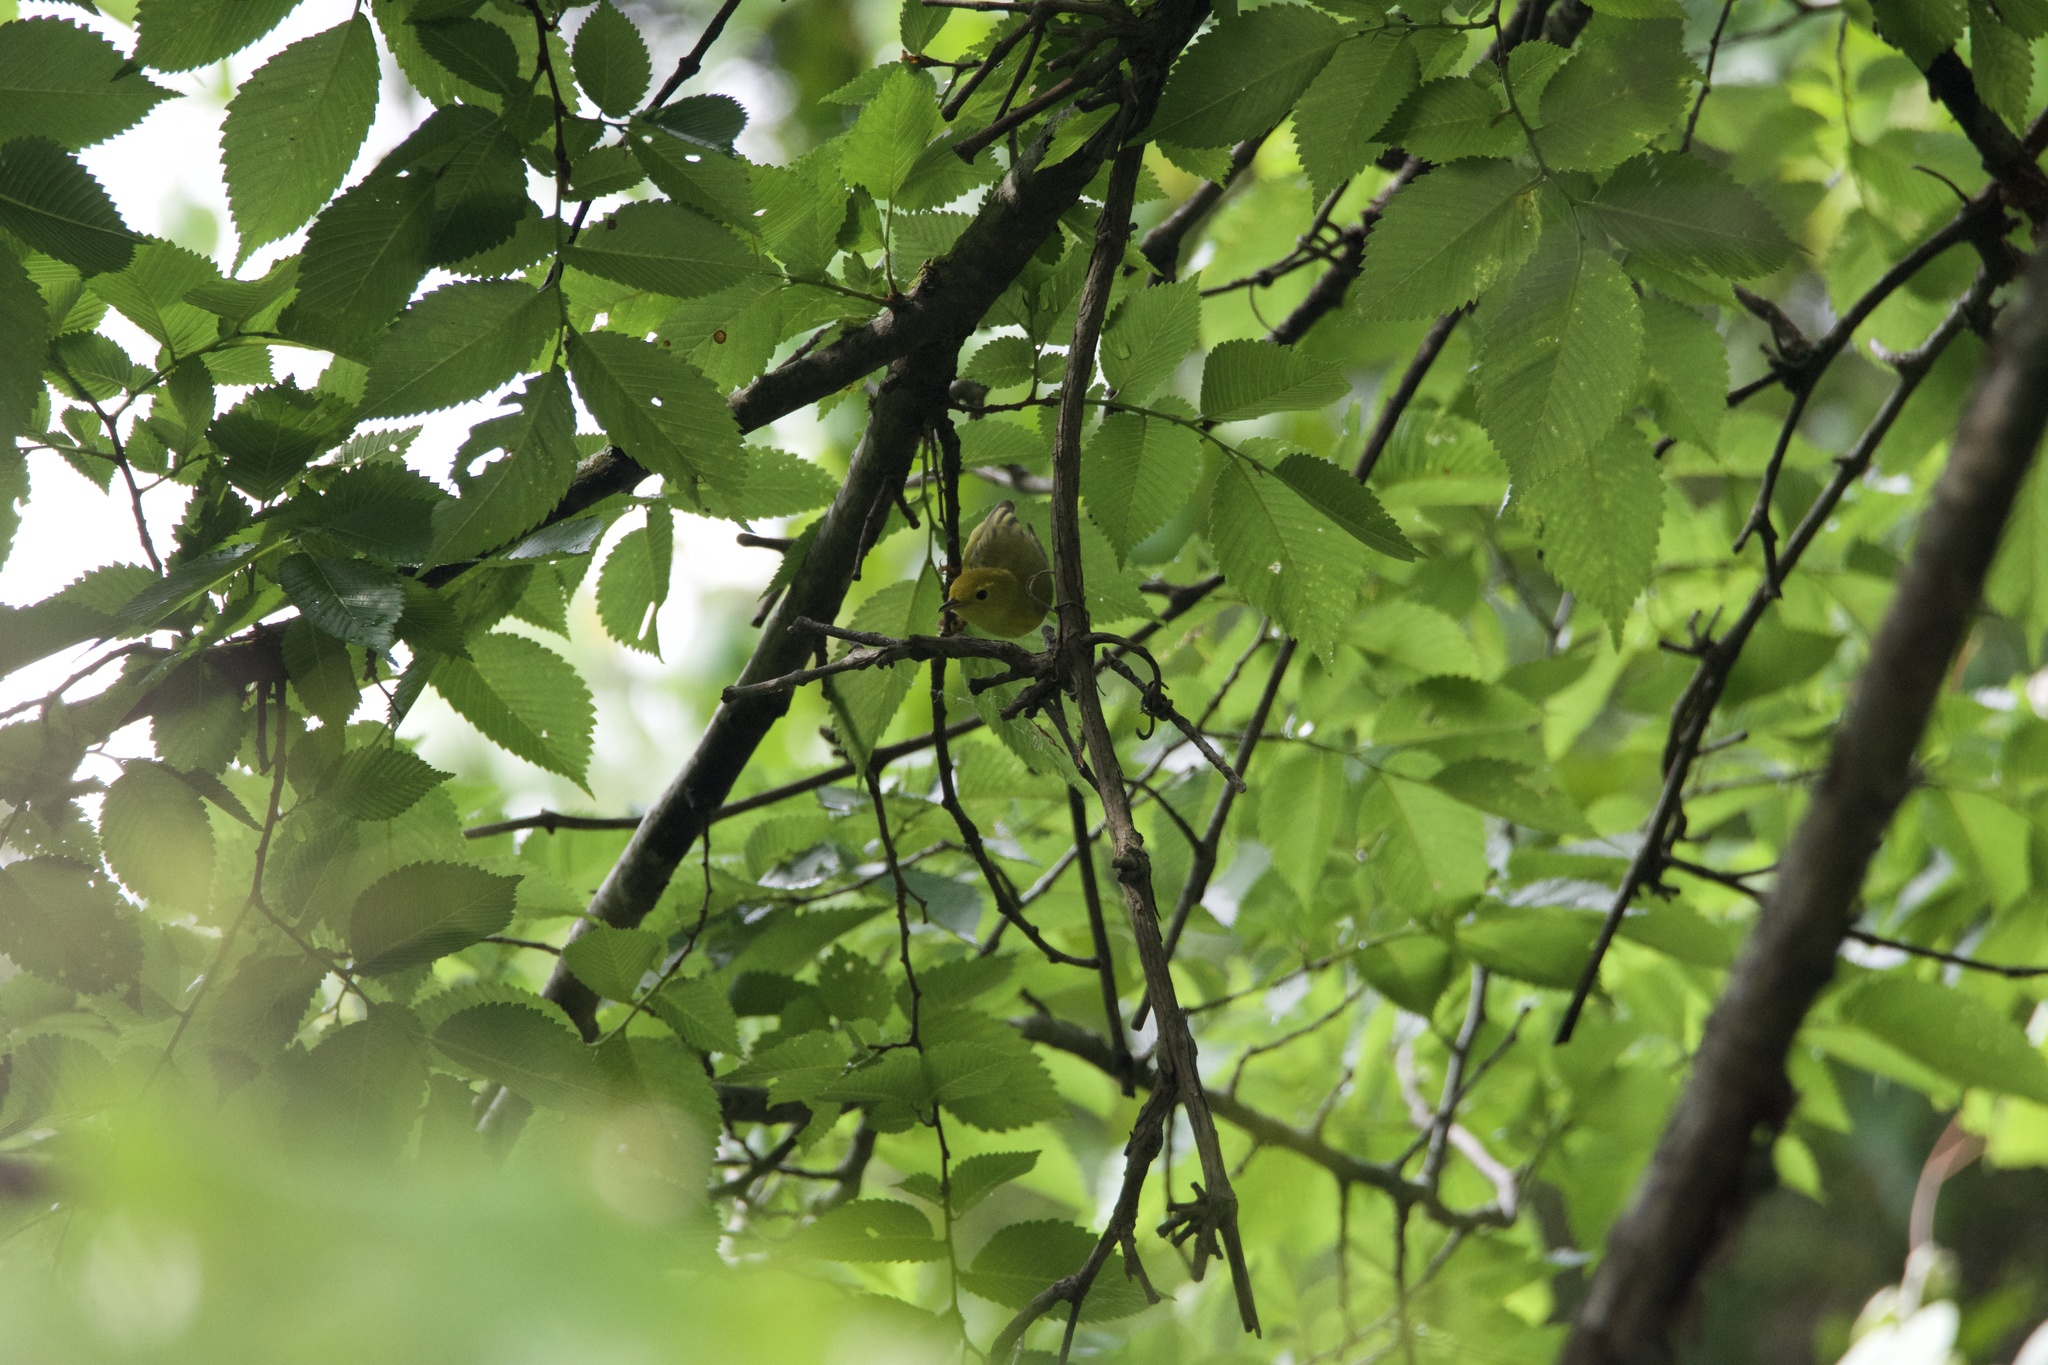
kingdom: Animalia
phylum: Chordata
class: Aves
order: Passeriformes
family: Parulidae
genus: Setophaga
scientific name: Setophaga petechia
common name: Yellow warbler
